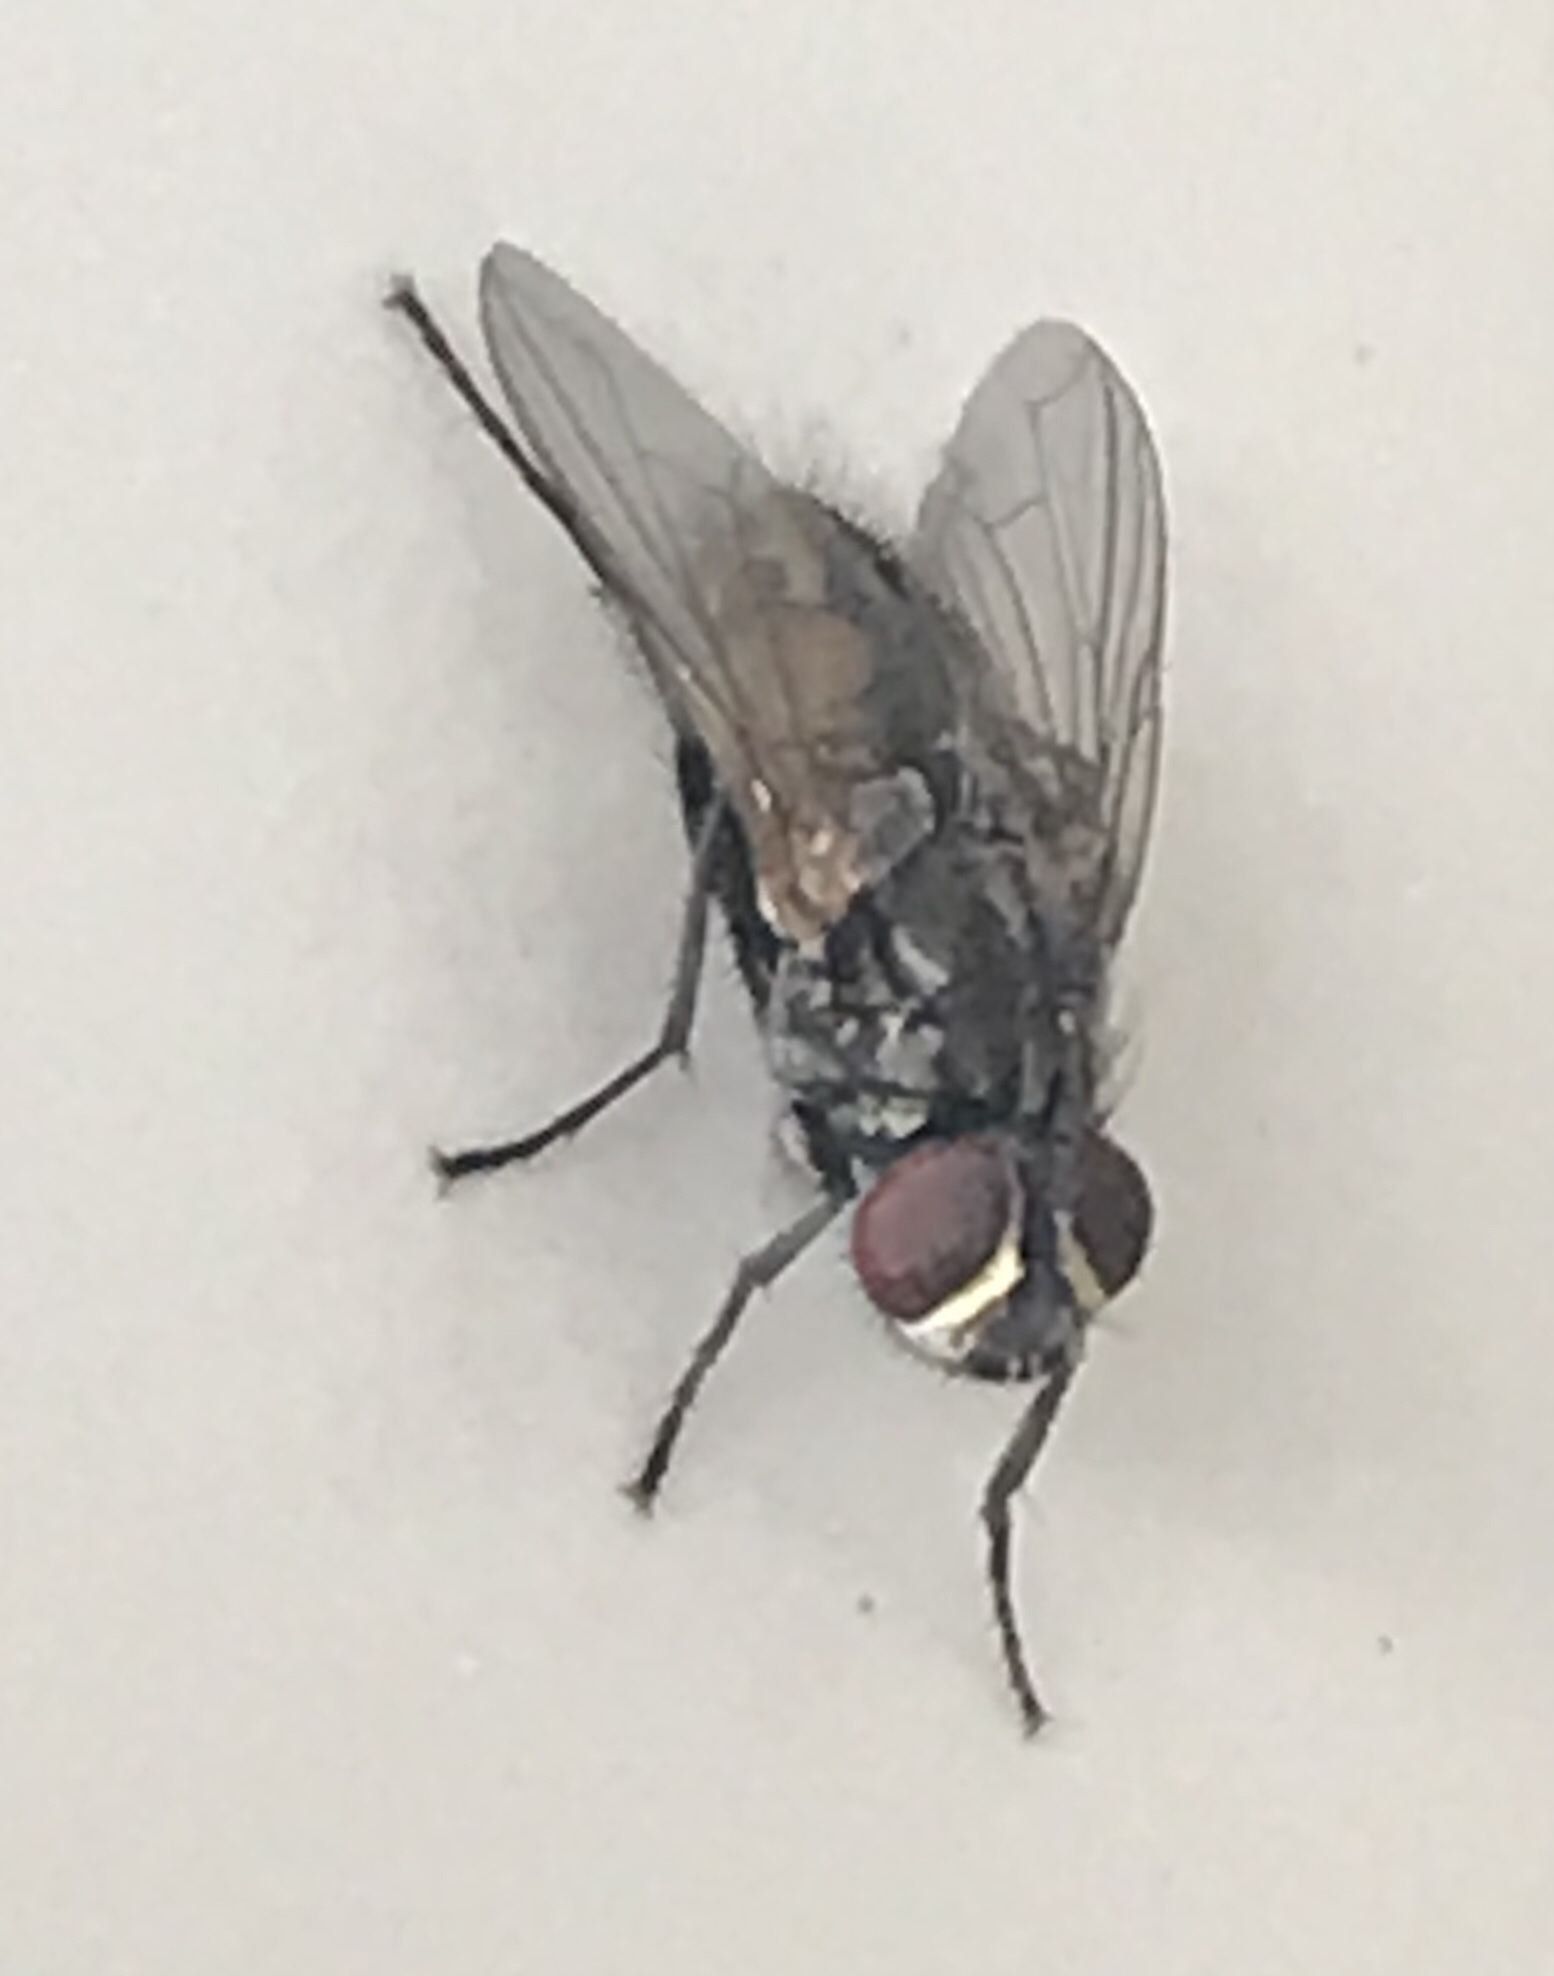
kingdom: Animalia
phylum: Arthropoda
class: Insecta
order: Diptera
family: Muscidae
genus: Musca
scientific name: Musca domestica
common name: House fly
